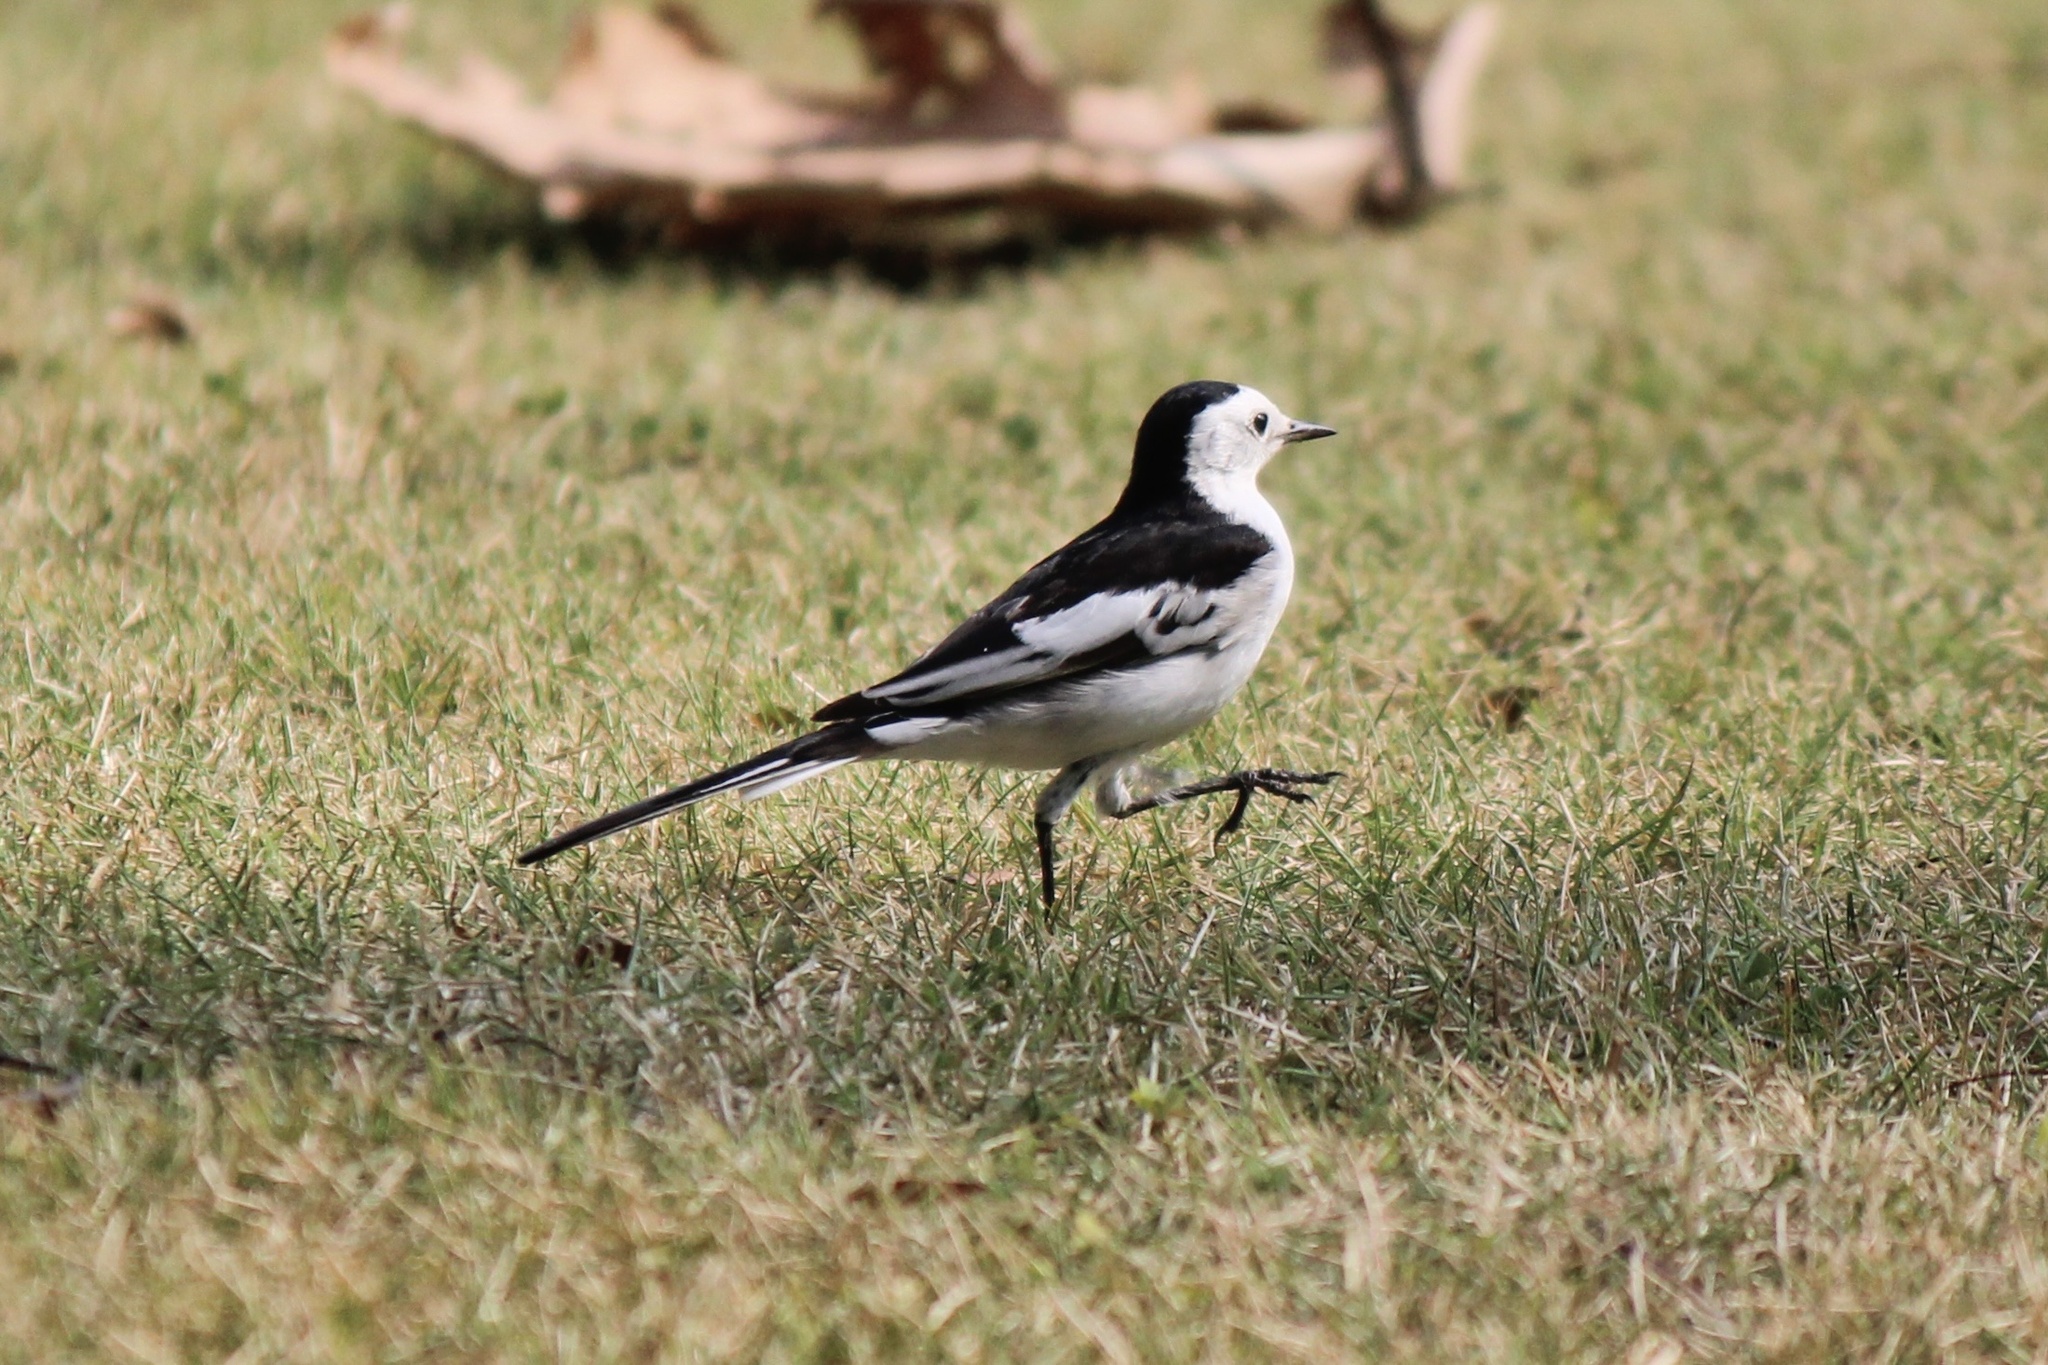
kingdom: Animalia
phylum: Chordata
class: Aves
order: Passeriformes
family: Motacillidae
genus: Motacilla
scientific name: Motacilla alba
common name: White wagtail
